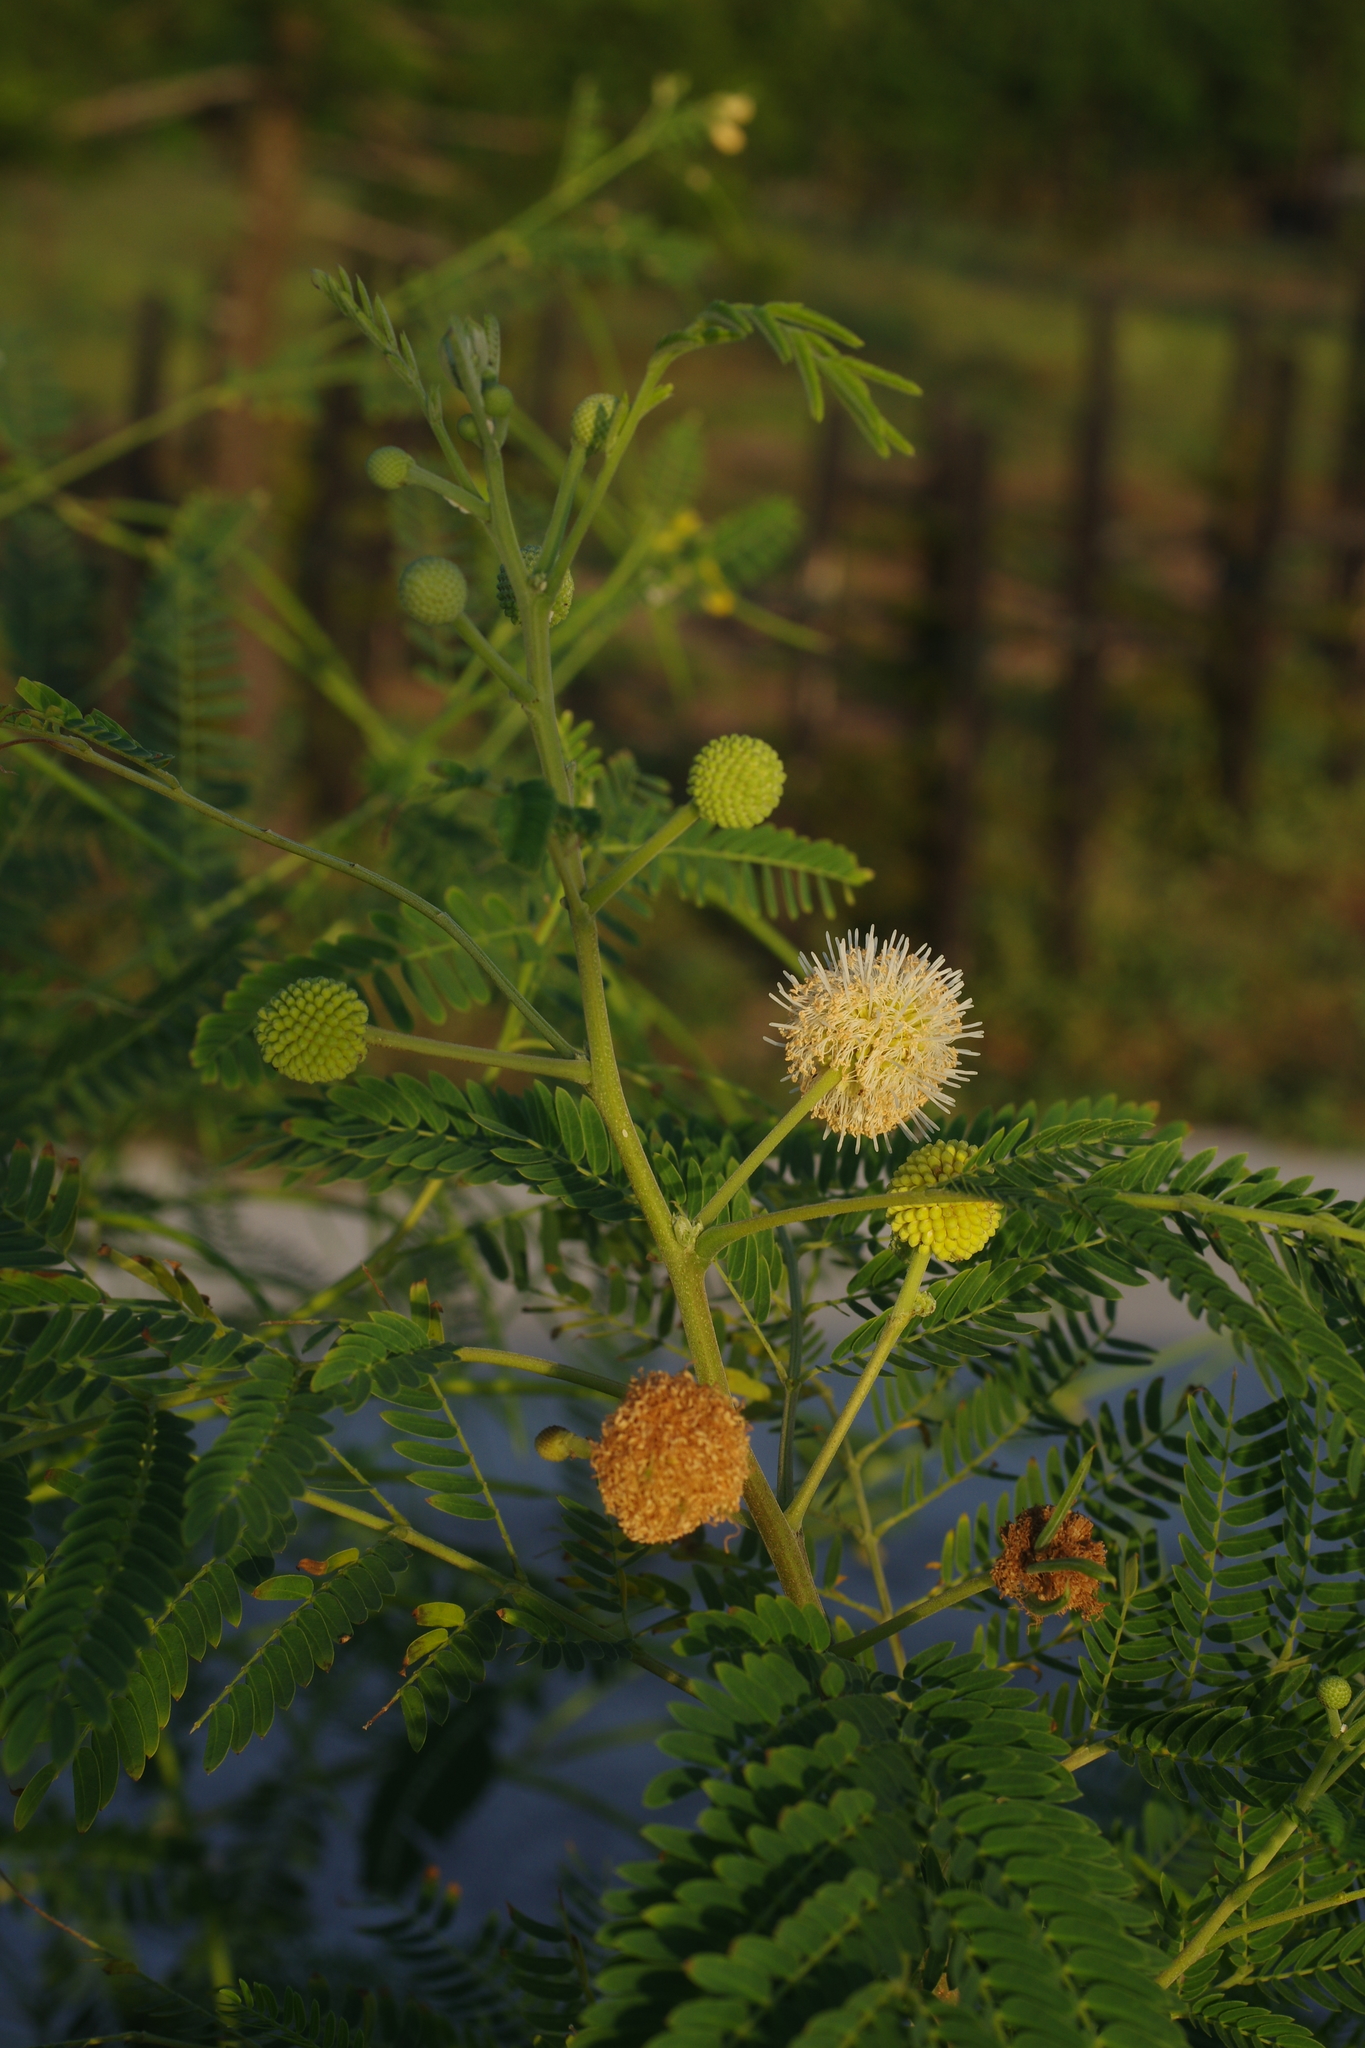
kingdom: Plantae
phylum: Tracheophyta
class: Magnoliopsida
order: Fabales
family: Fabaceae
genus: Leucaena
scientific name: Leucaena leucocephala
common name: White leadtree
